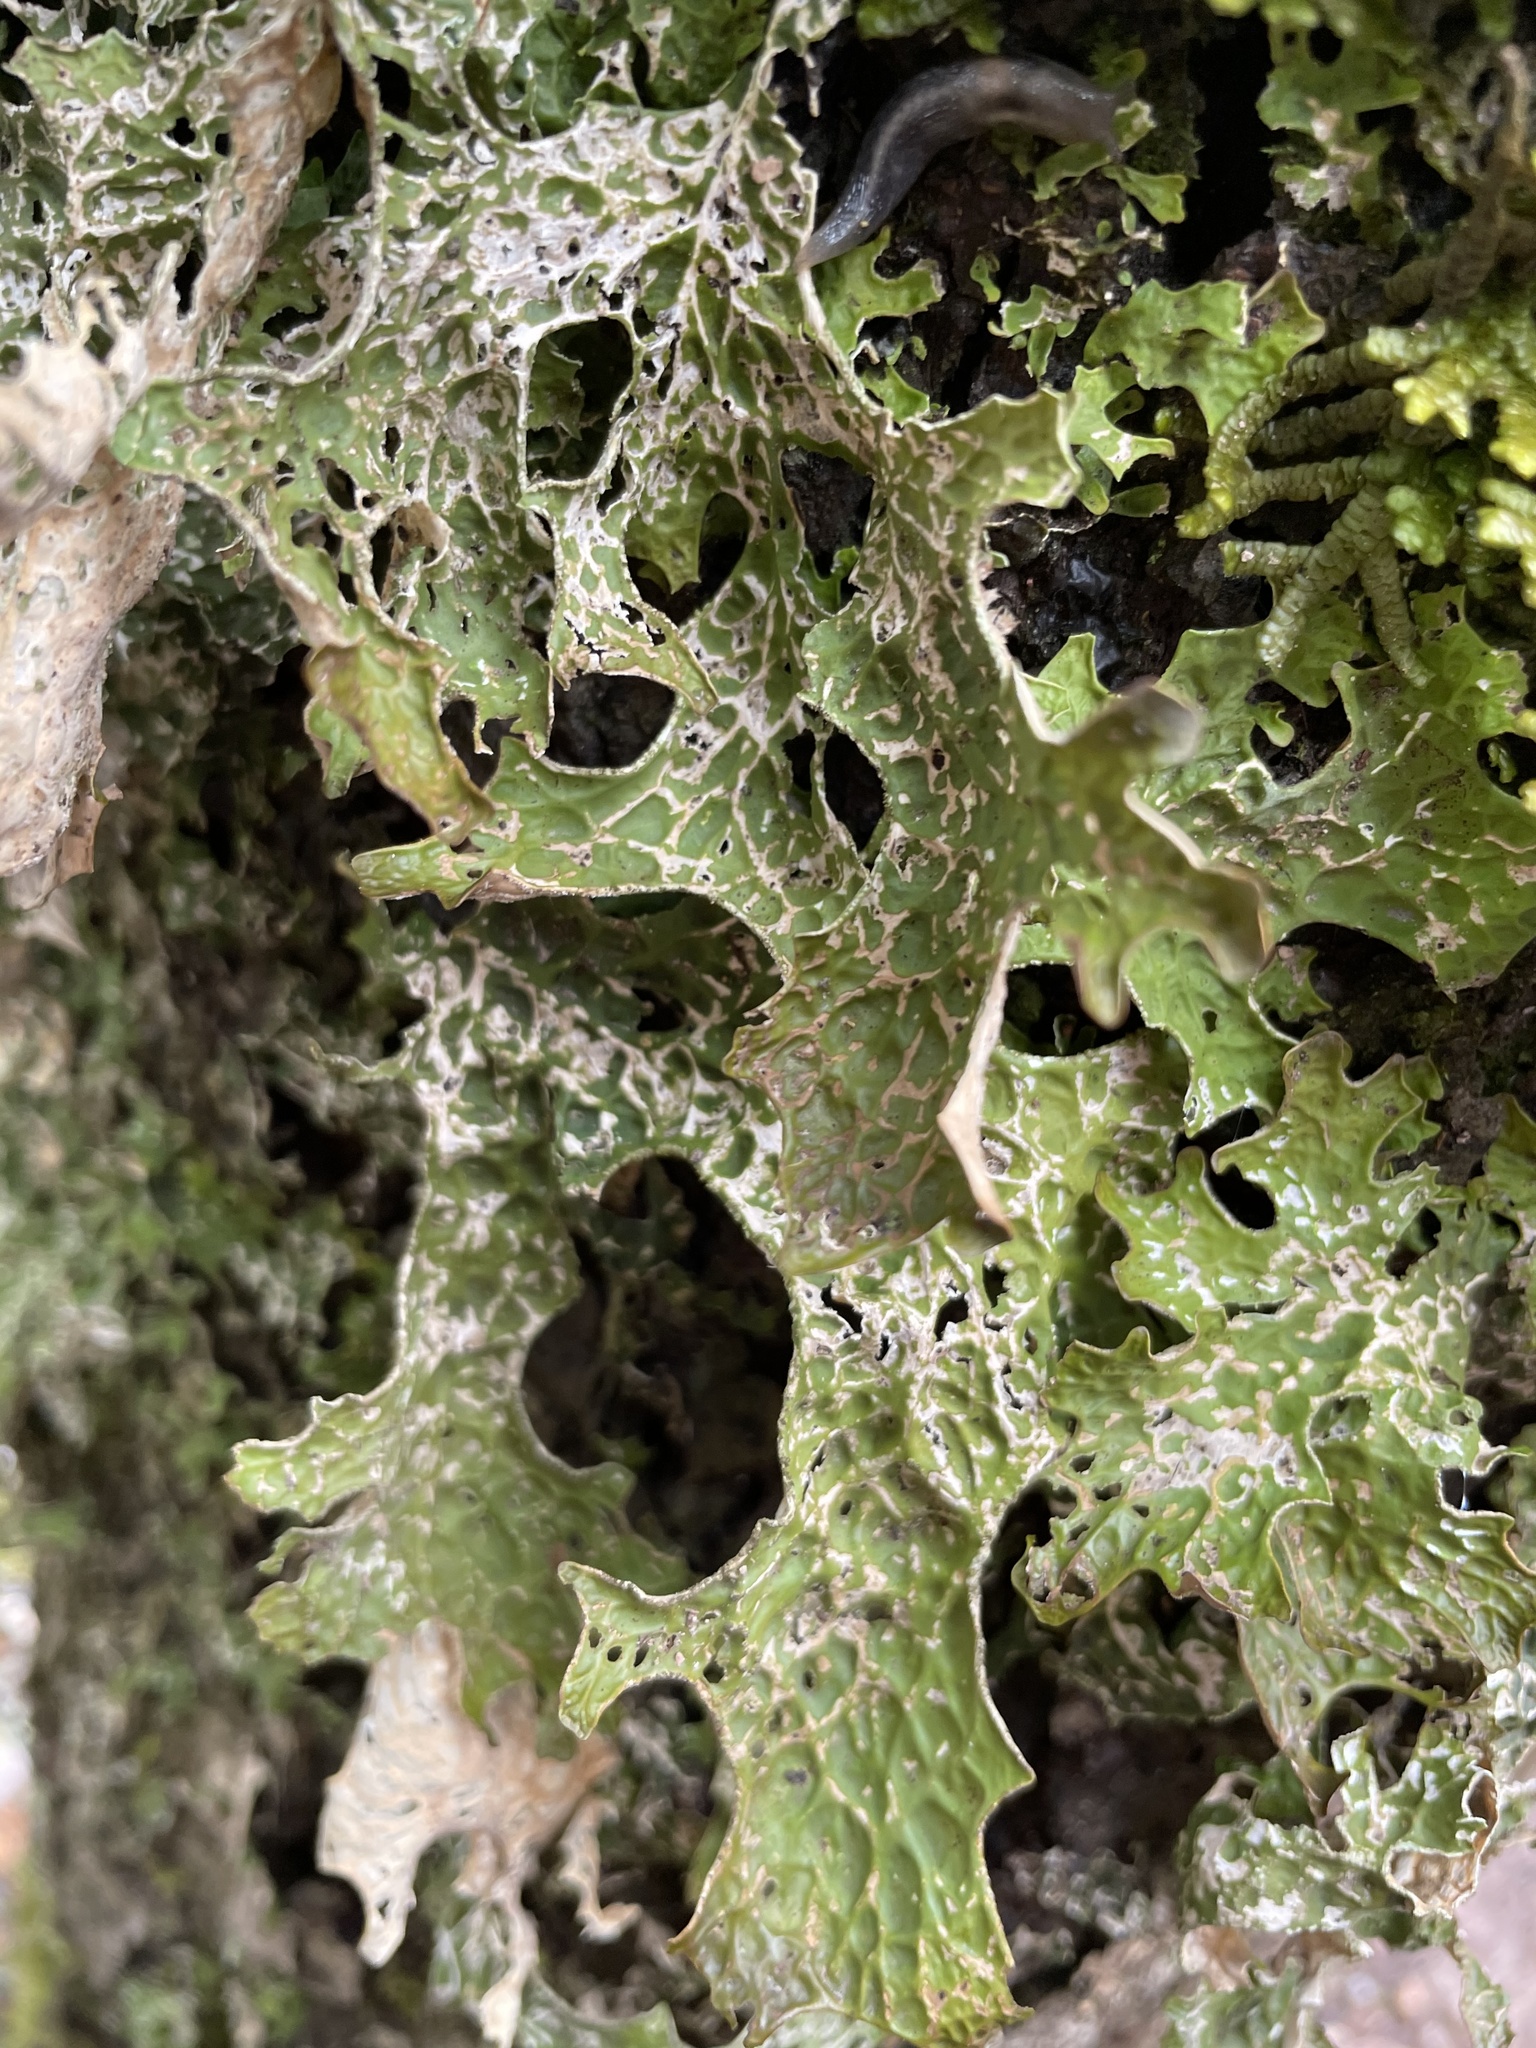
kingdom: Fungi
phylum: Ascomycota
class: Lecanoromycetes
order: Peltigerales
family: Lobariaceae
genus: Lobaria
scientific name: Lobaria pulmonaria
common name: Lungwort
